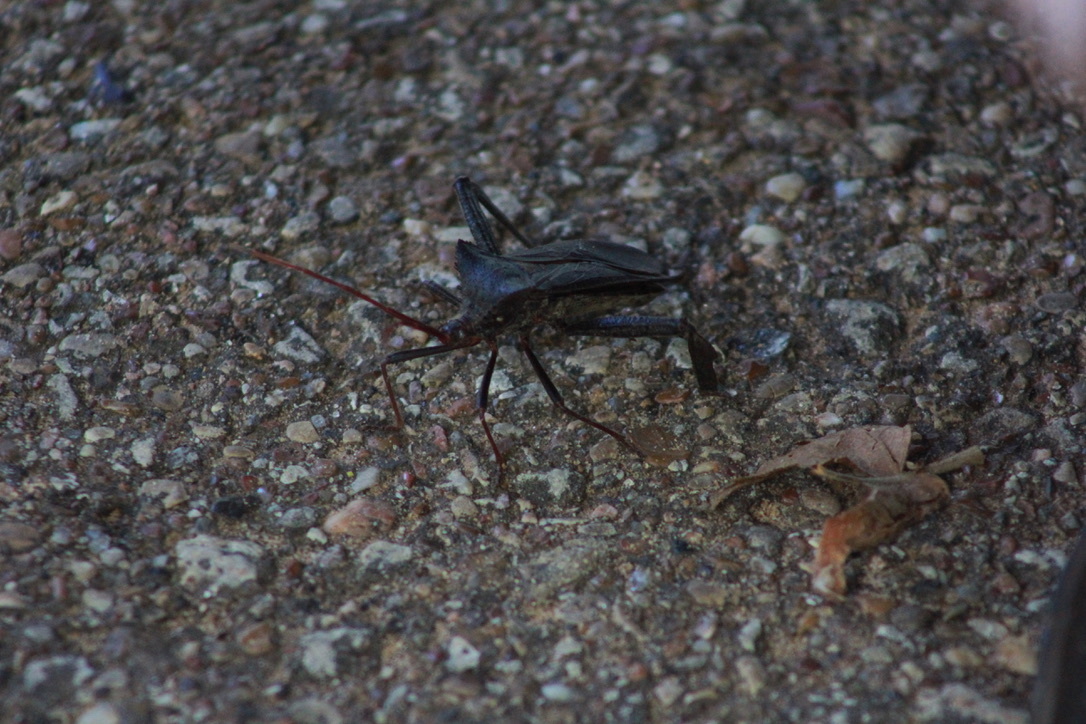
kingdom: Animalia
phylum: Arthropoda
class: Insecta
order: Hemiptera
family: Coreidae
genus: Acanthocephala
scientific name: Acanthocephala declivis
